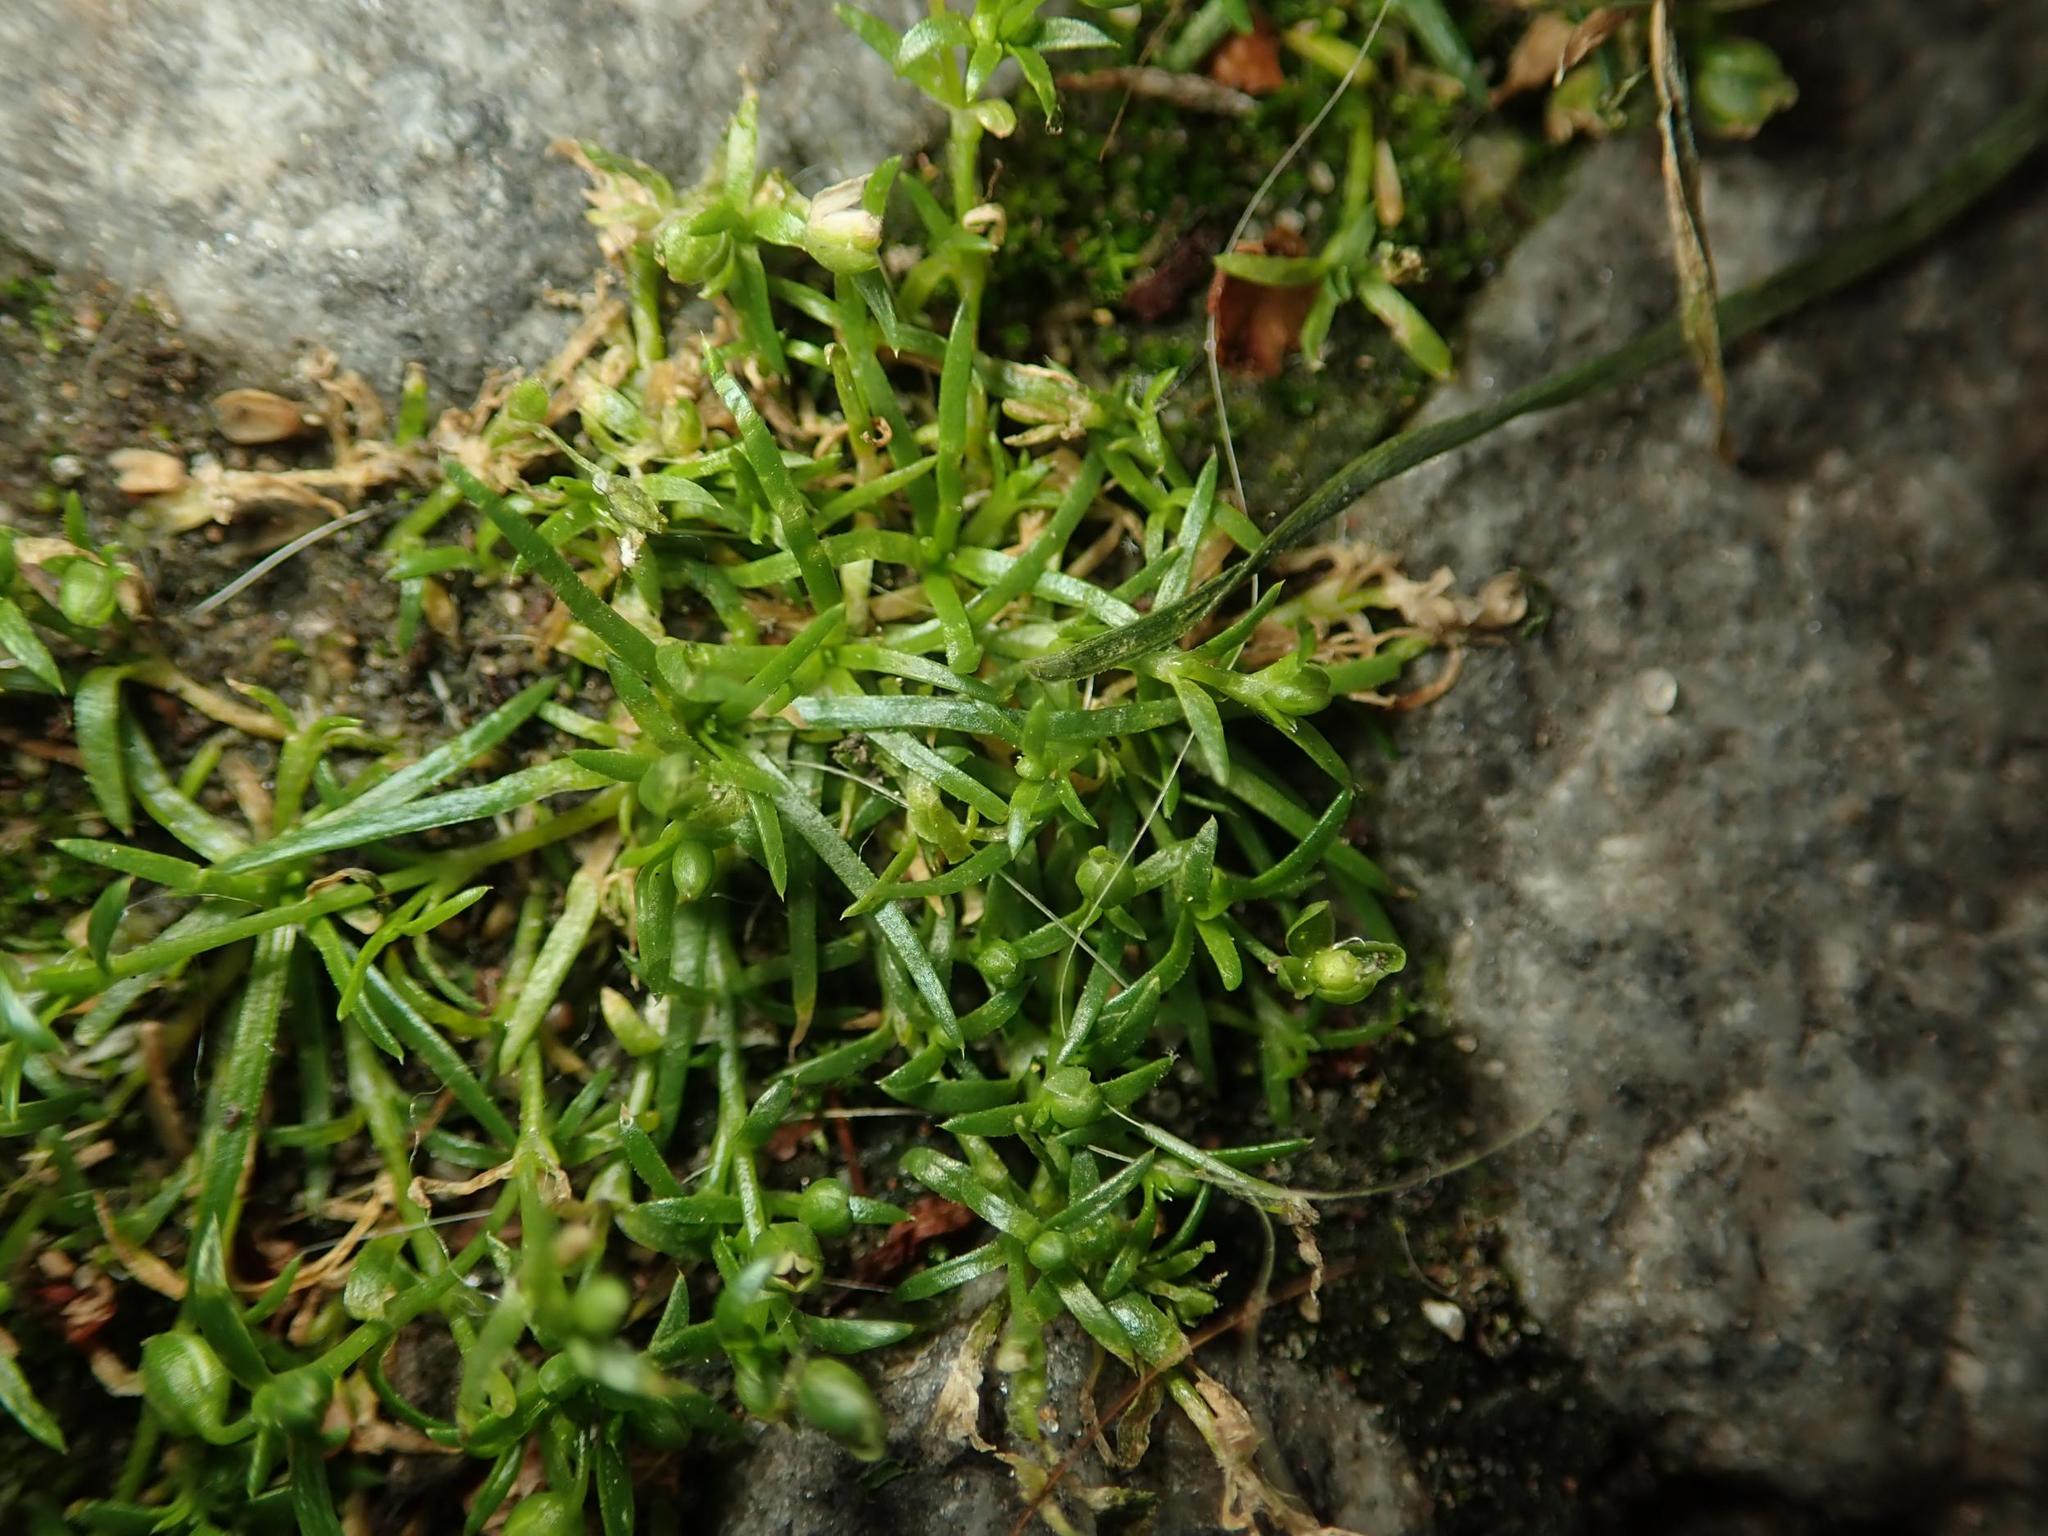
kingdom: Plantae
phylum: Tracheophyta
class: Magnoliopsida
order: Caryophyllales
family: Caryophyllaceae
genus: Sagina
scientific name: Sagina procumbens
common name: Procumbent pearlwort
